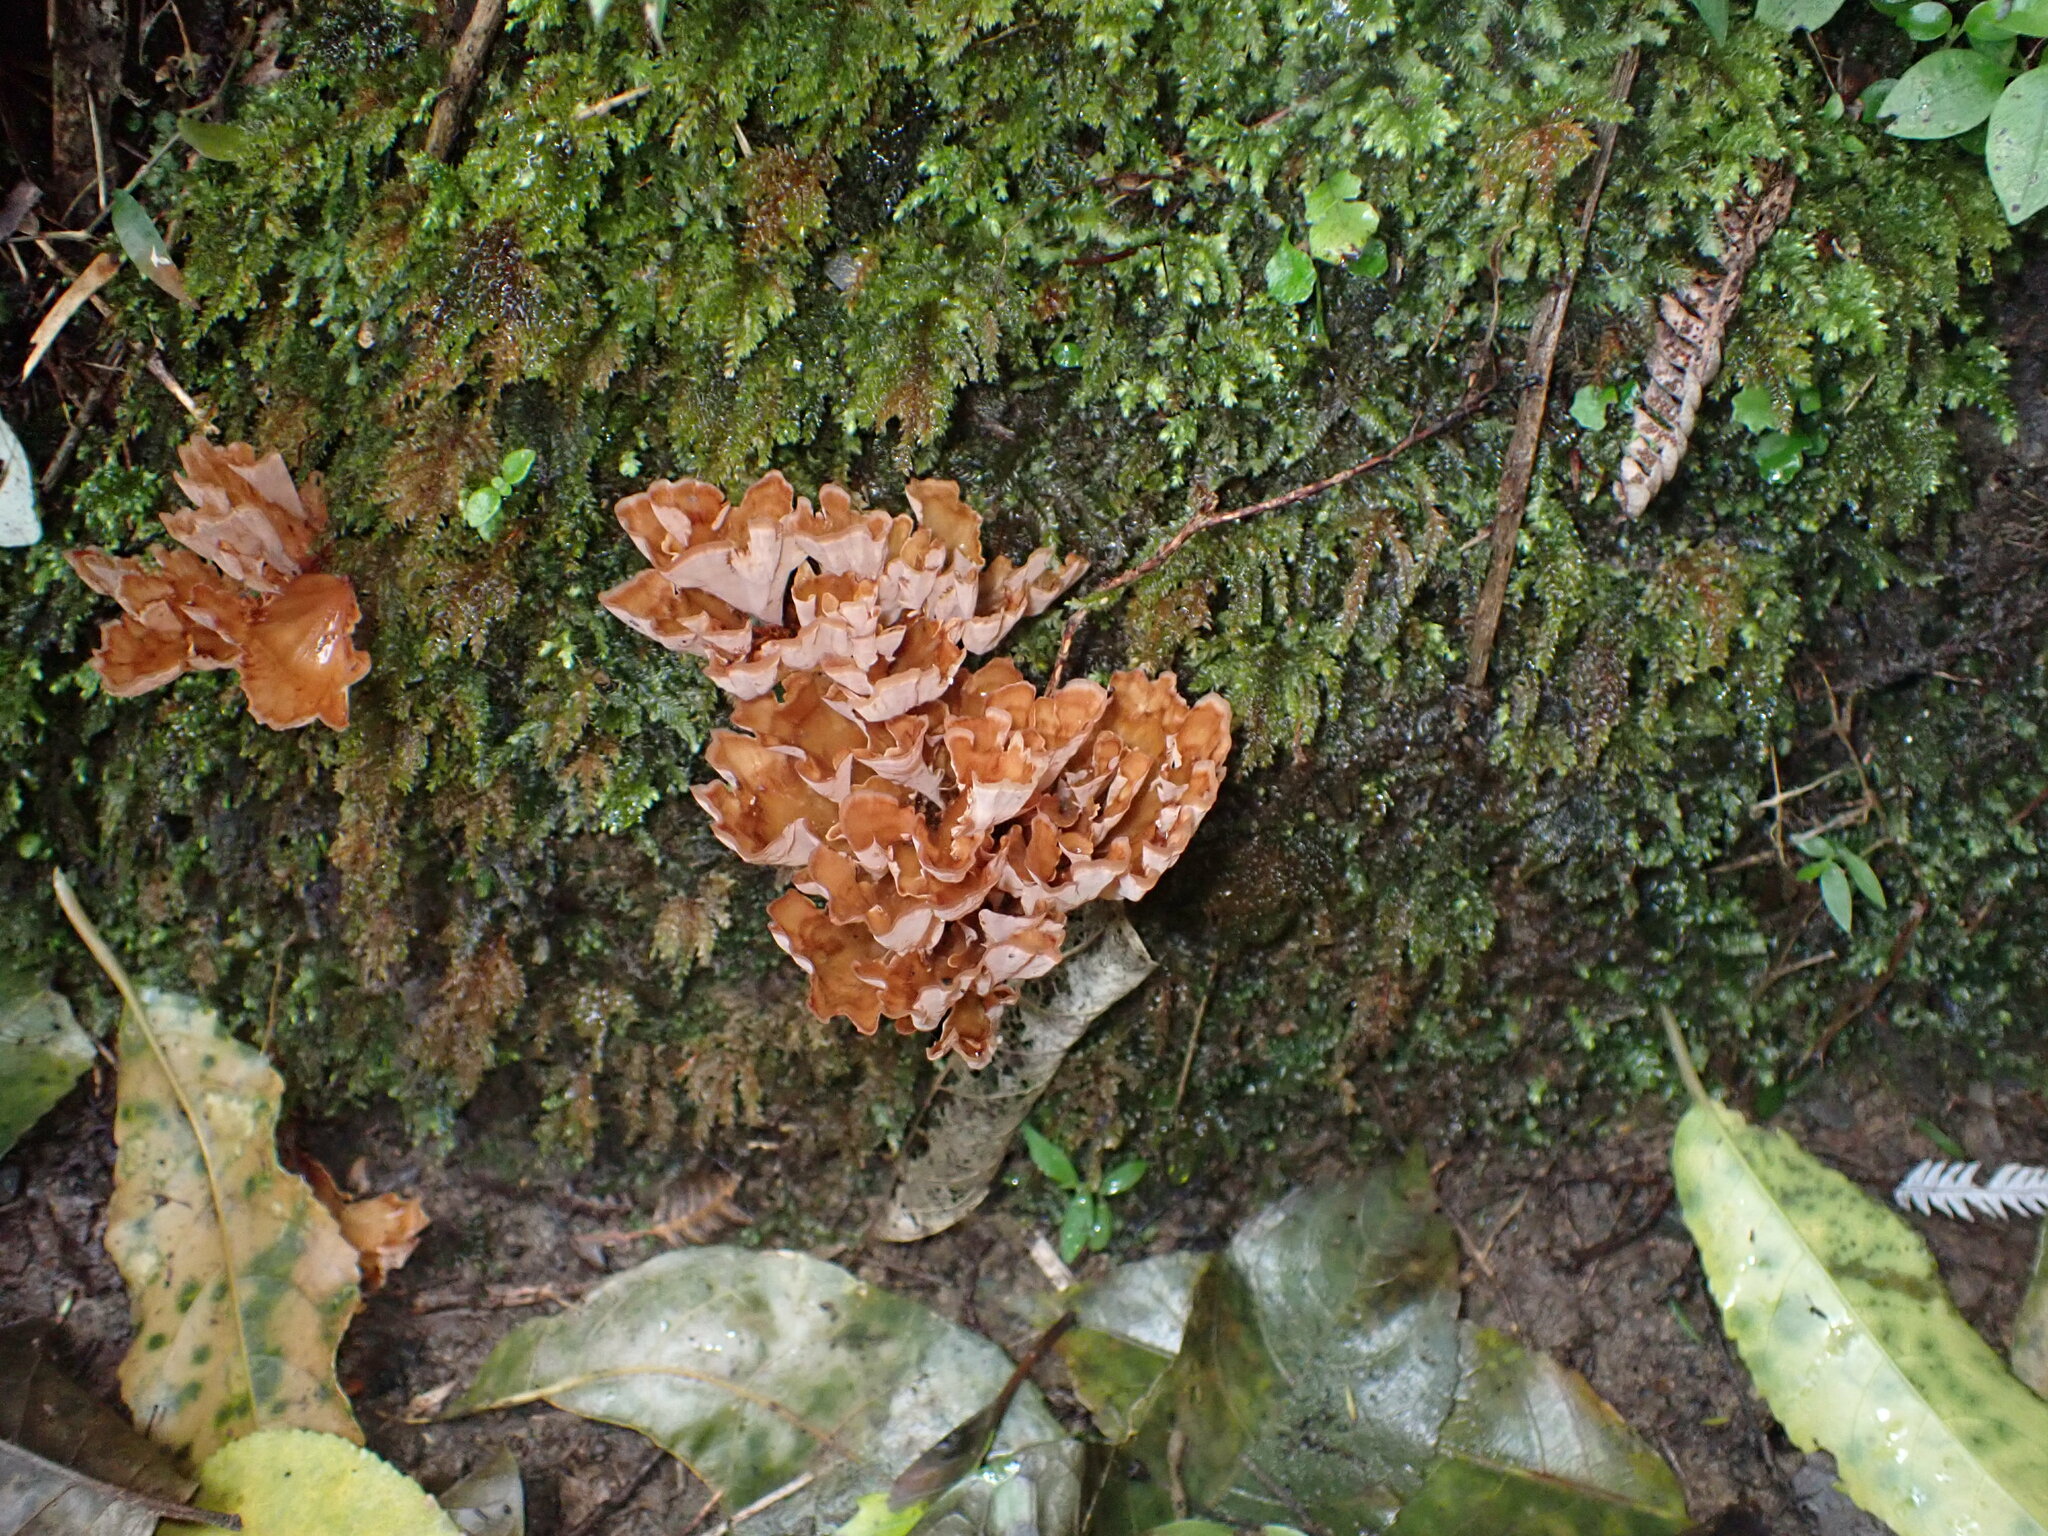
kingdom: Fungi
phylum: Basidiomycota
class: Agaricomycetes
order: Polyporales
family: Podoscyphaceae
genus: Podoscypha
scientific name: Podoscypha petalodes
